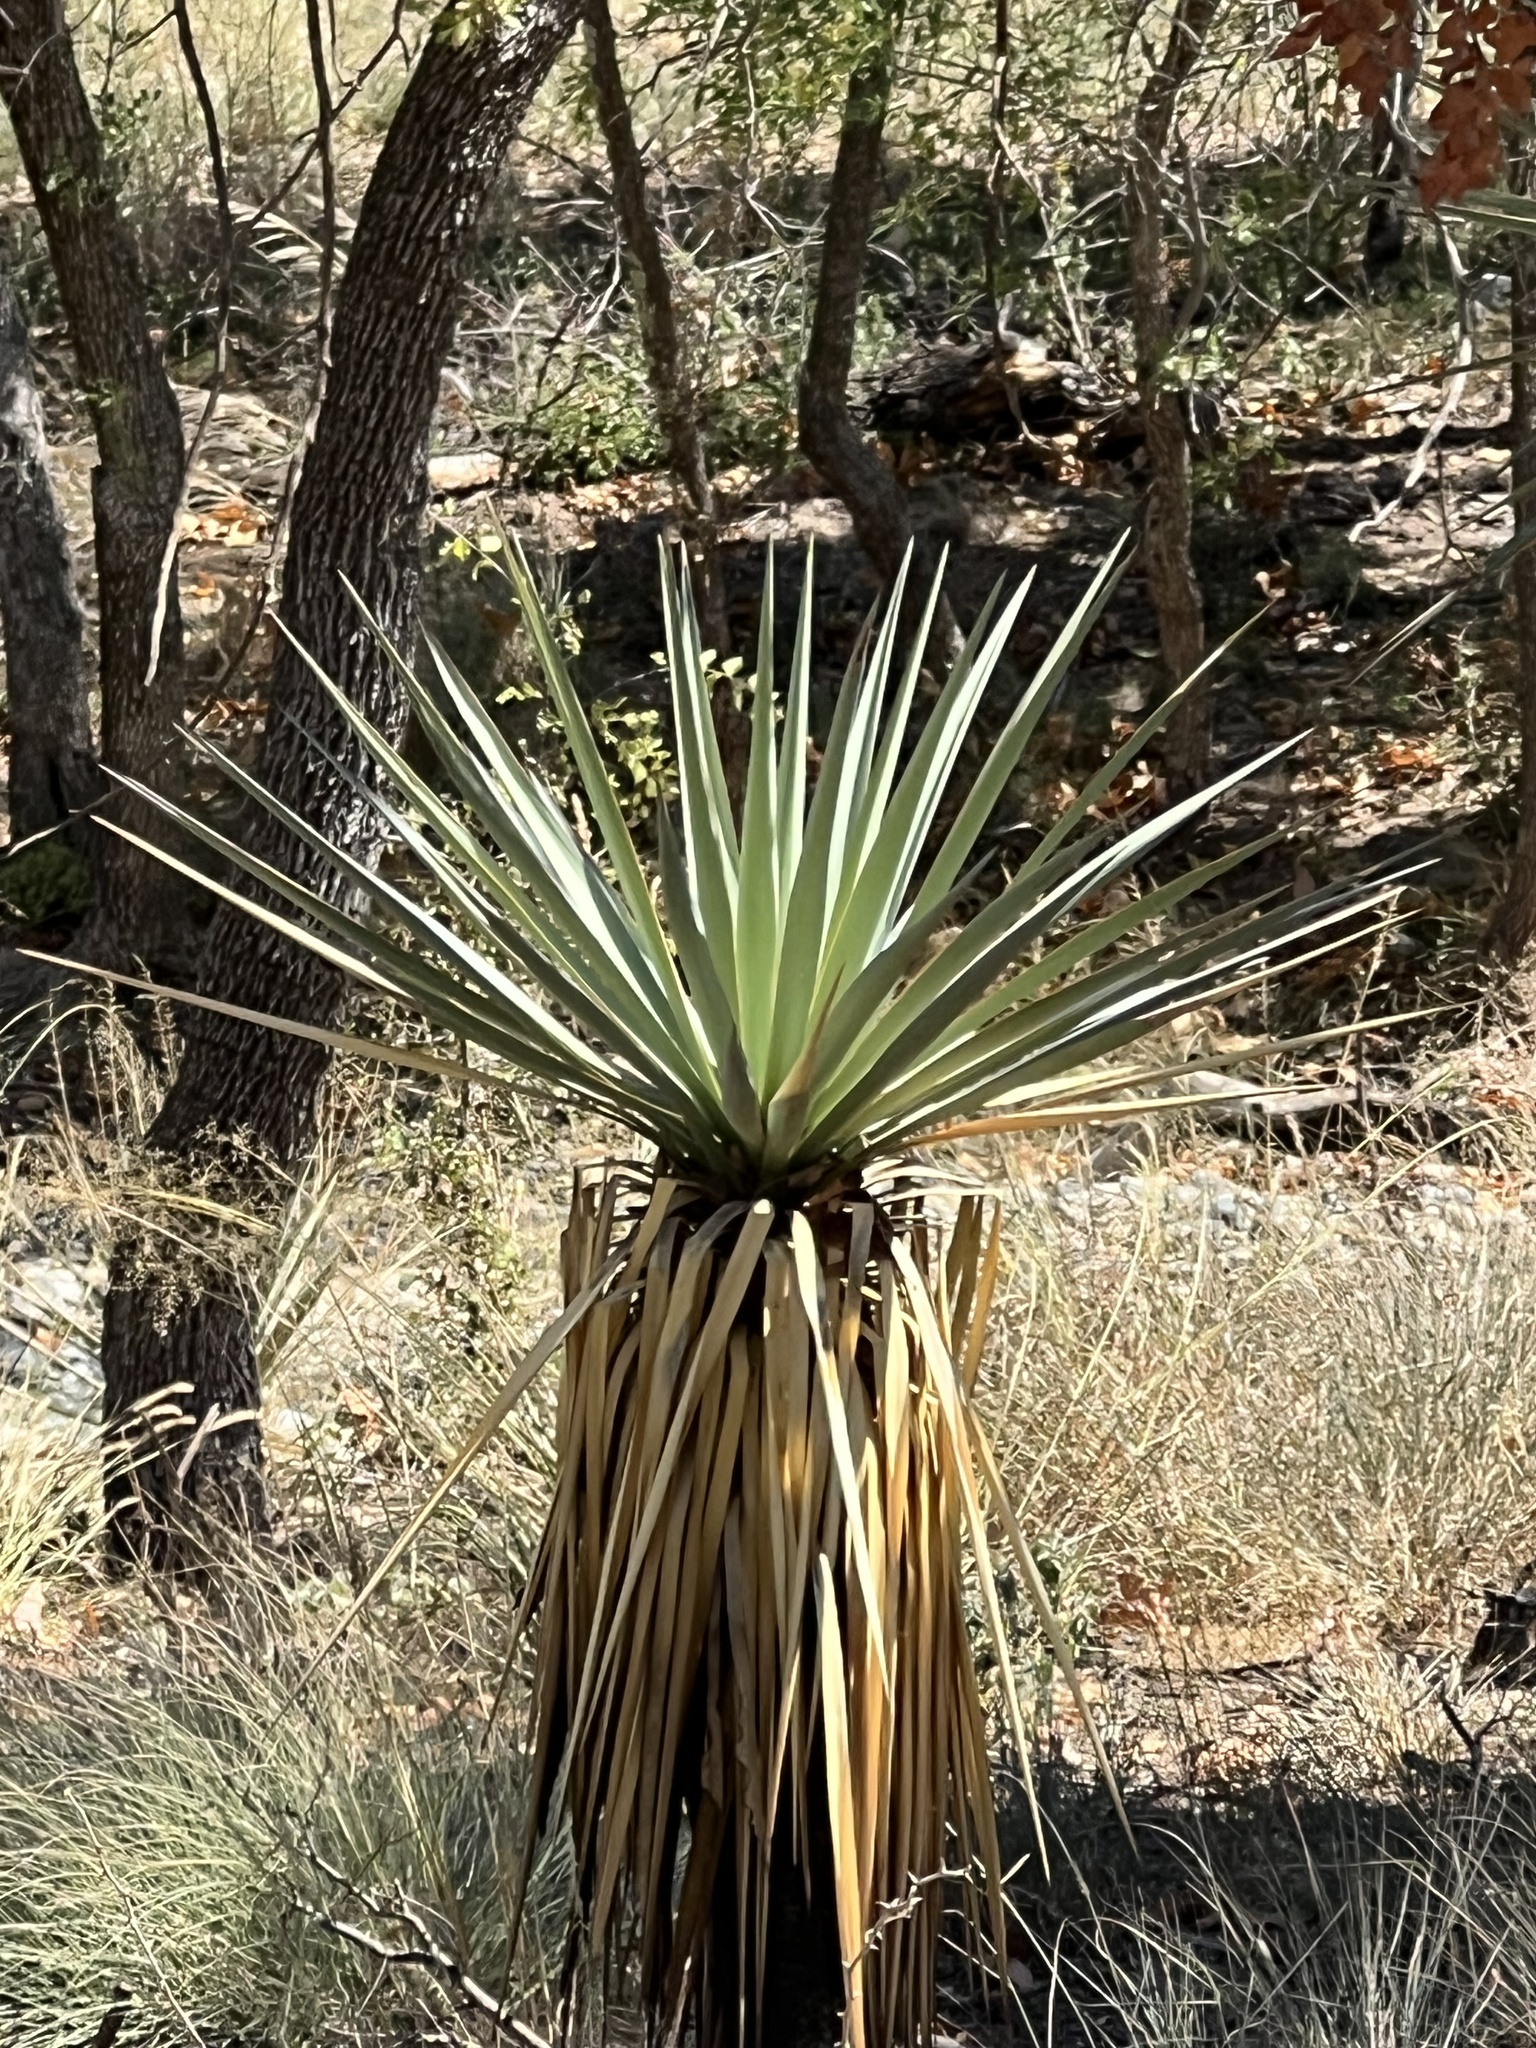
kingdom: Plantae
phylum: Tracheophyta
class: Liliopsida
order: Asparagales
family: Asparagaceae
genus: Yucca
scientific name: Yucca schottii
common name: Hoary yucca
